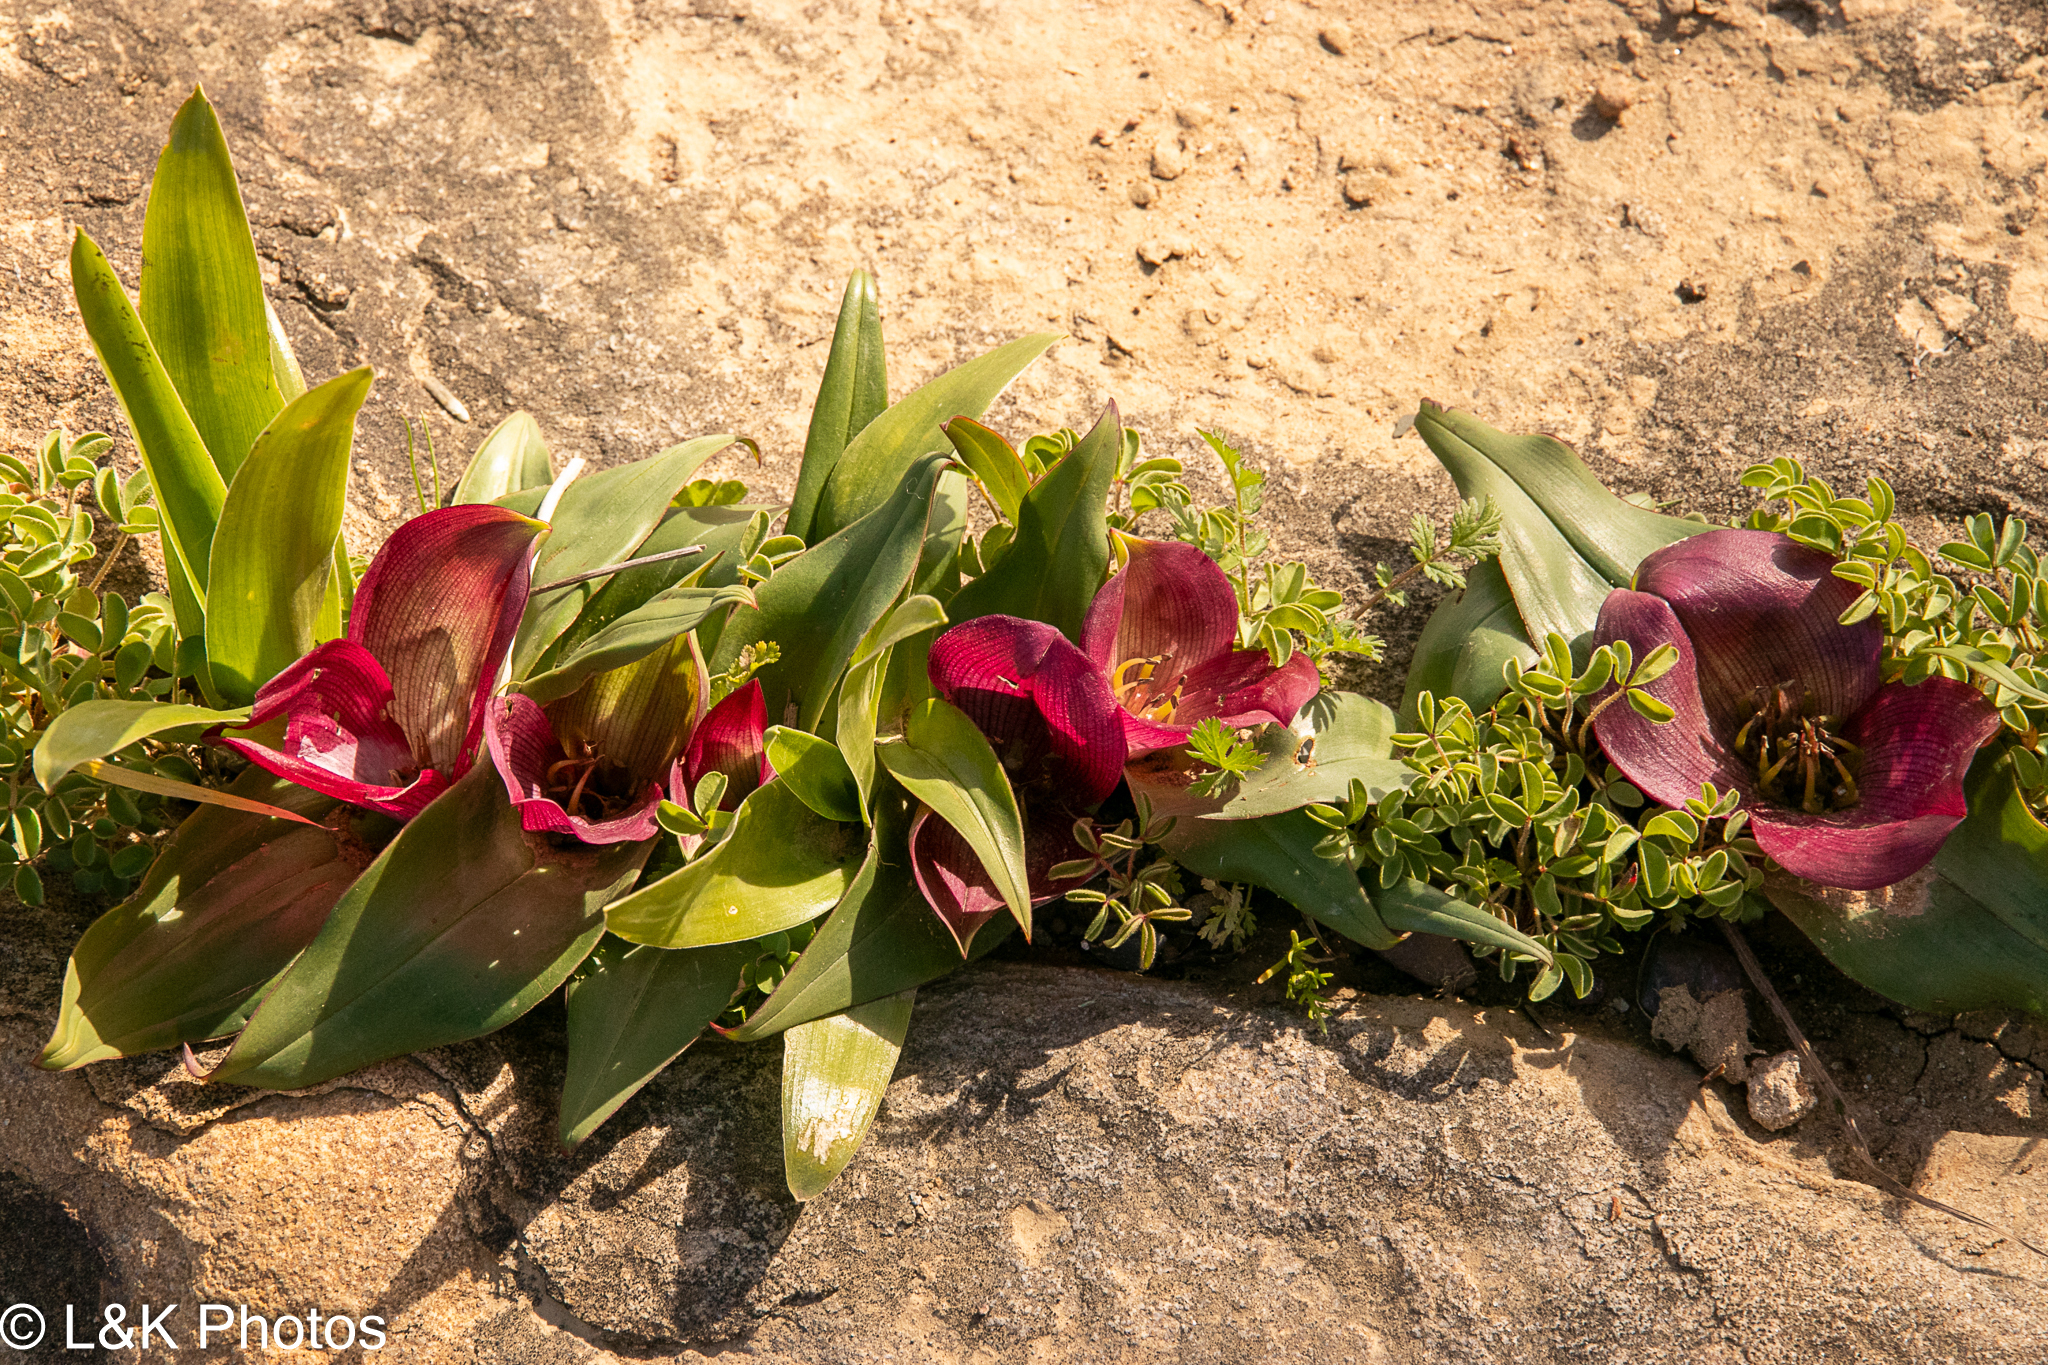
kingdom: Plantae
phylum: Tracheophyta
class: Liliopsida
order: Liliales
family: Colchicaceae
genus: Colchicum
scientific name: Colchicum burchellii
